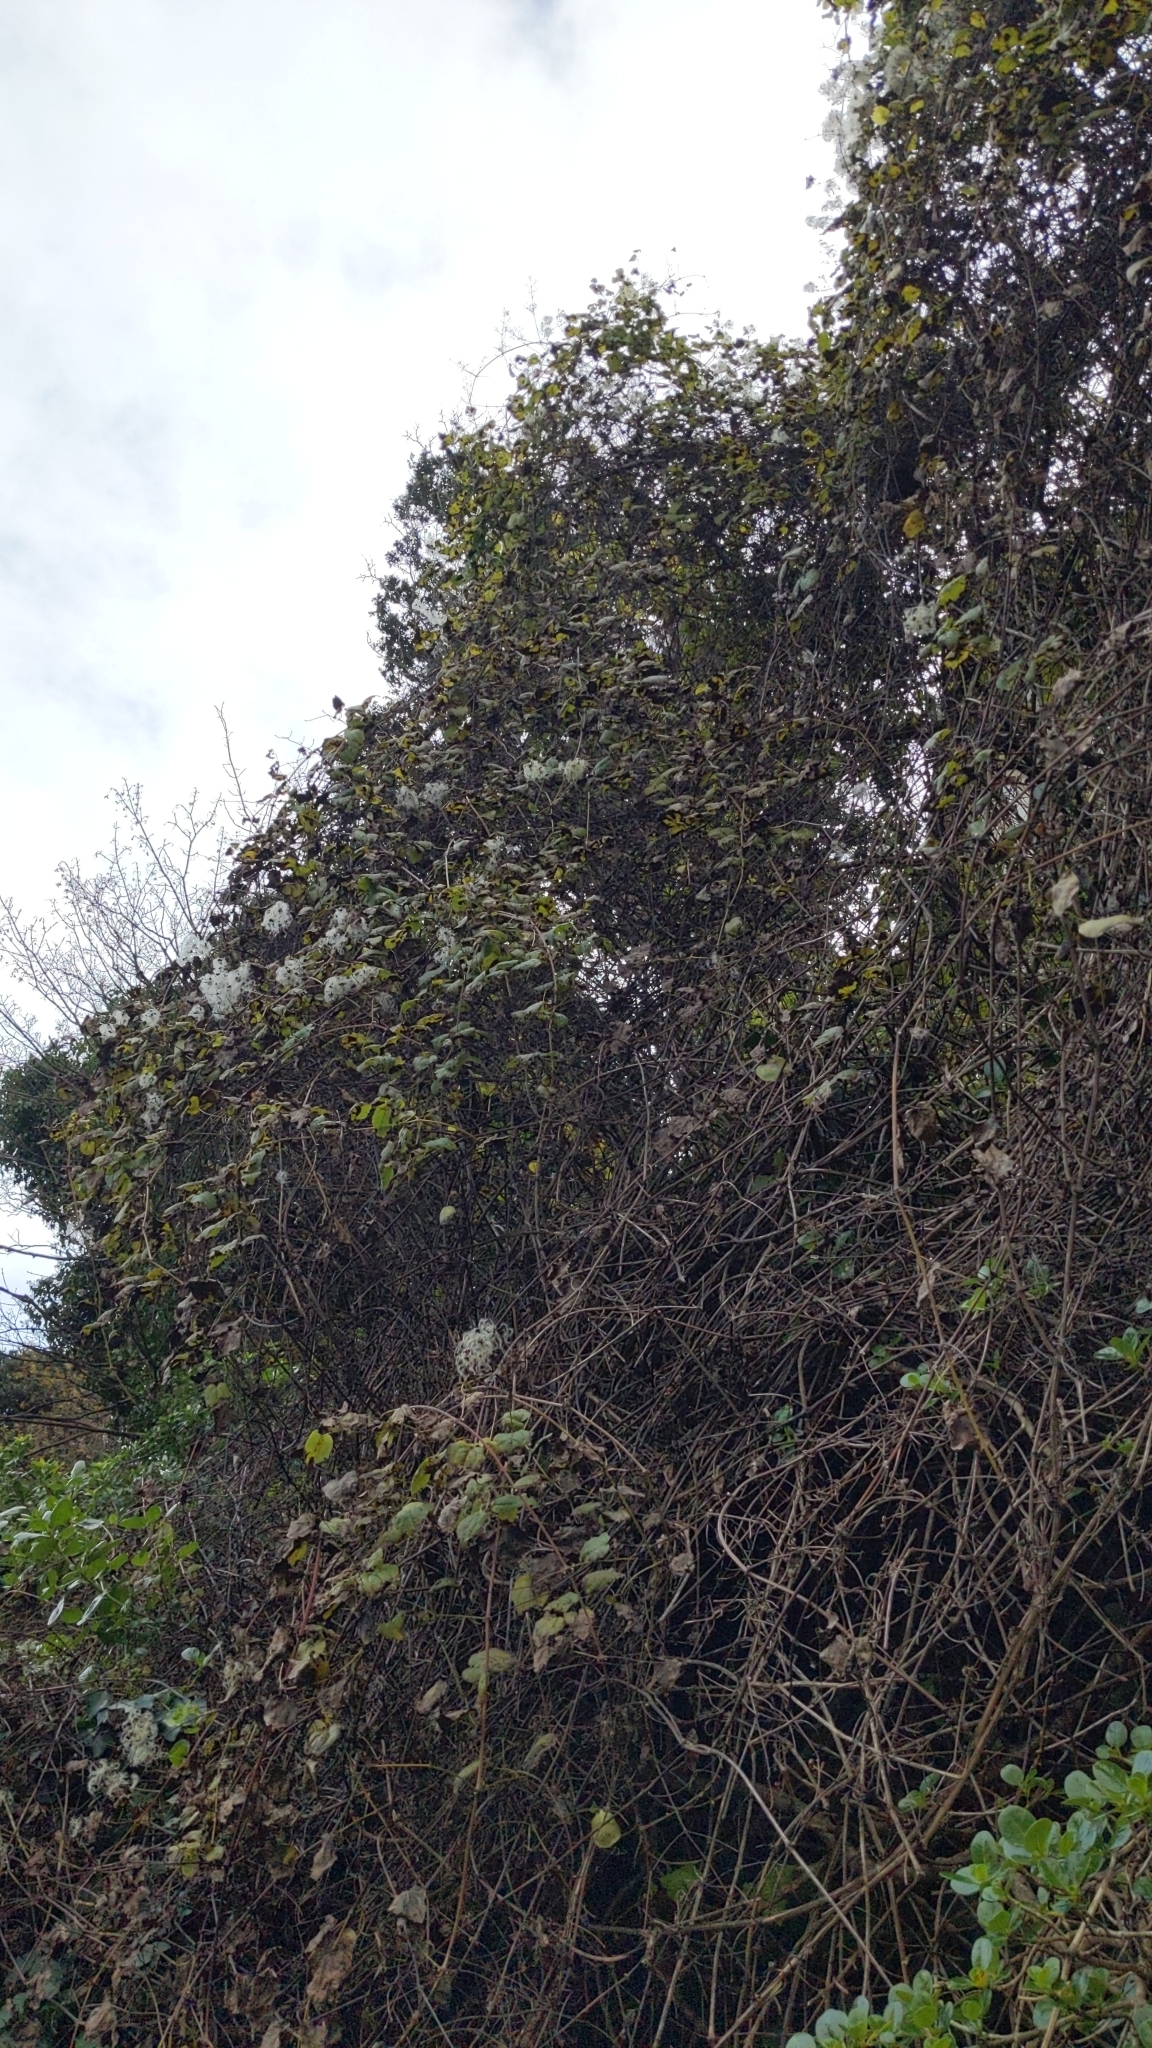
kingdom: Plantae
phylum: Tracheophyta
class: Magnoliopsida
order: Ranunculales
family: Ranunculaceae
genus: Clematis
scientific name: Clematis vitalba
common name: Evergreen clematis
